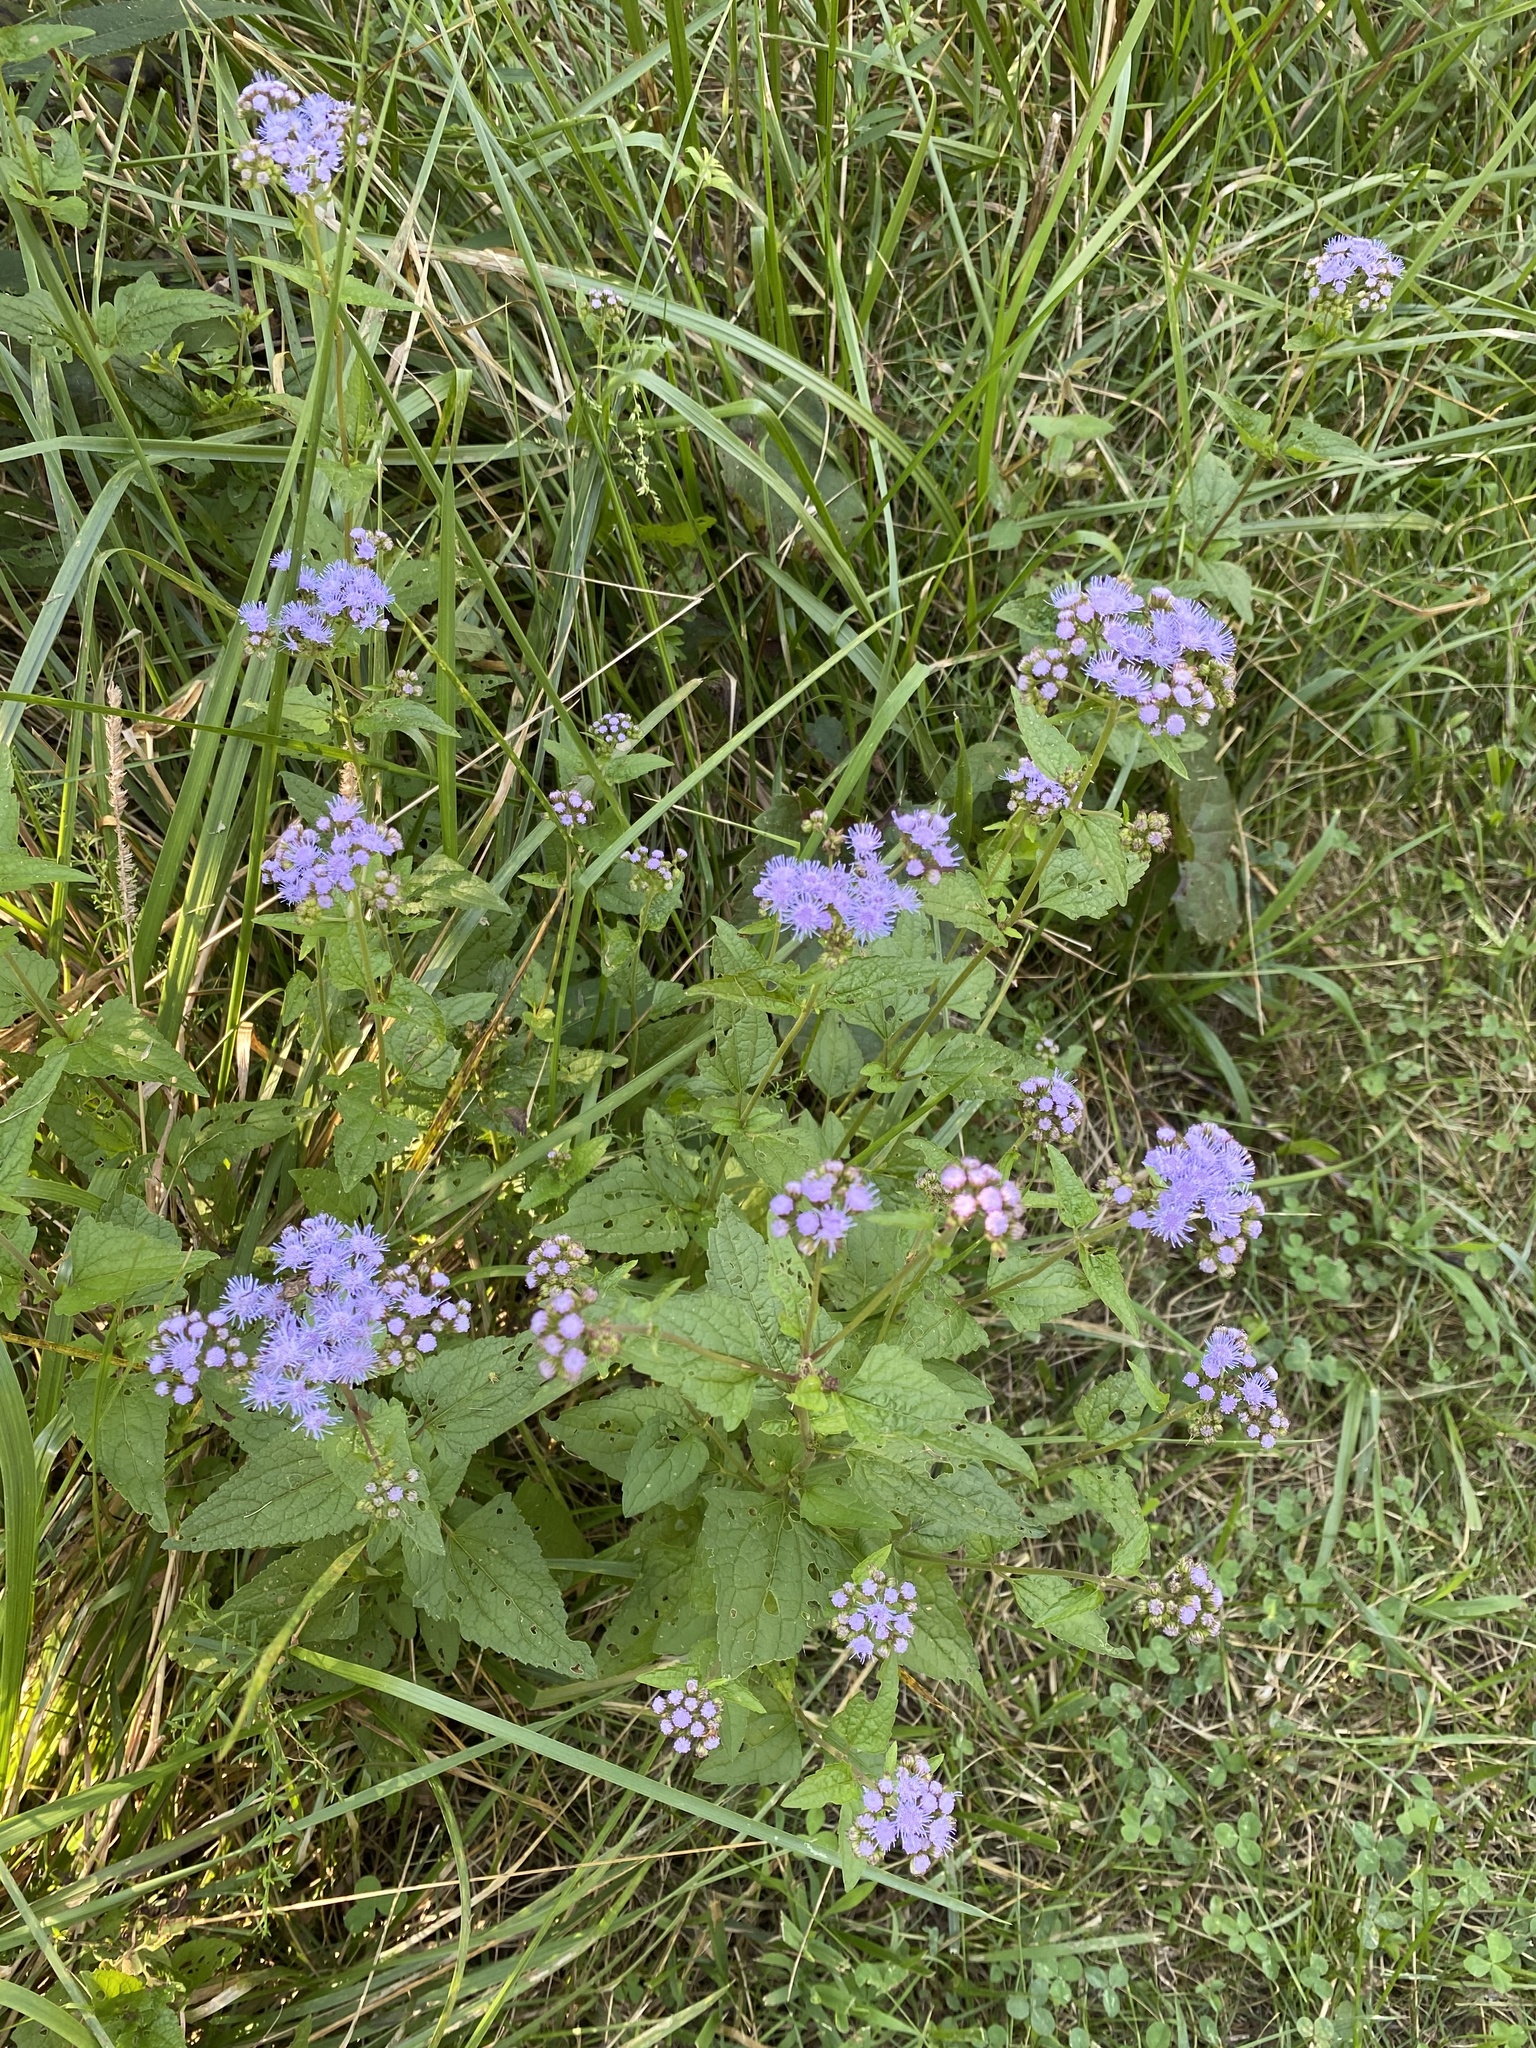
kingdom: Plantae
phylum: Tracheophyta
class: Magnoliopsida
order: Asterales
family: Asteraceae
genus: Conoclinium
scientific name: Conoclinium coelestinum
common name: Blue mistflower
